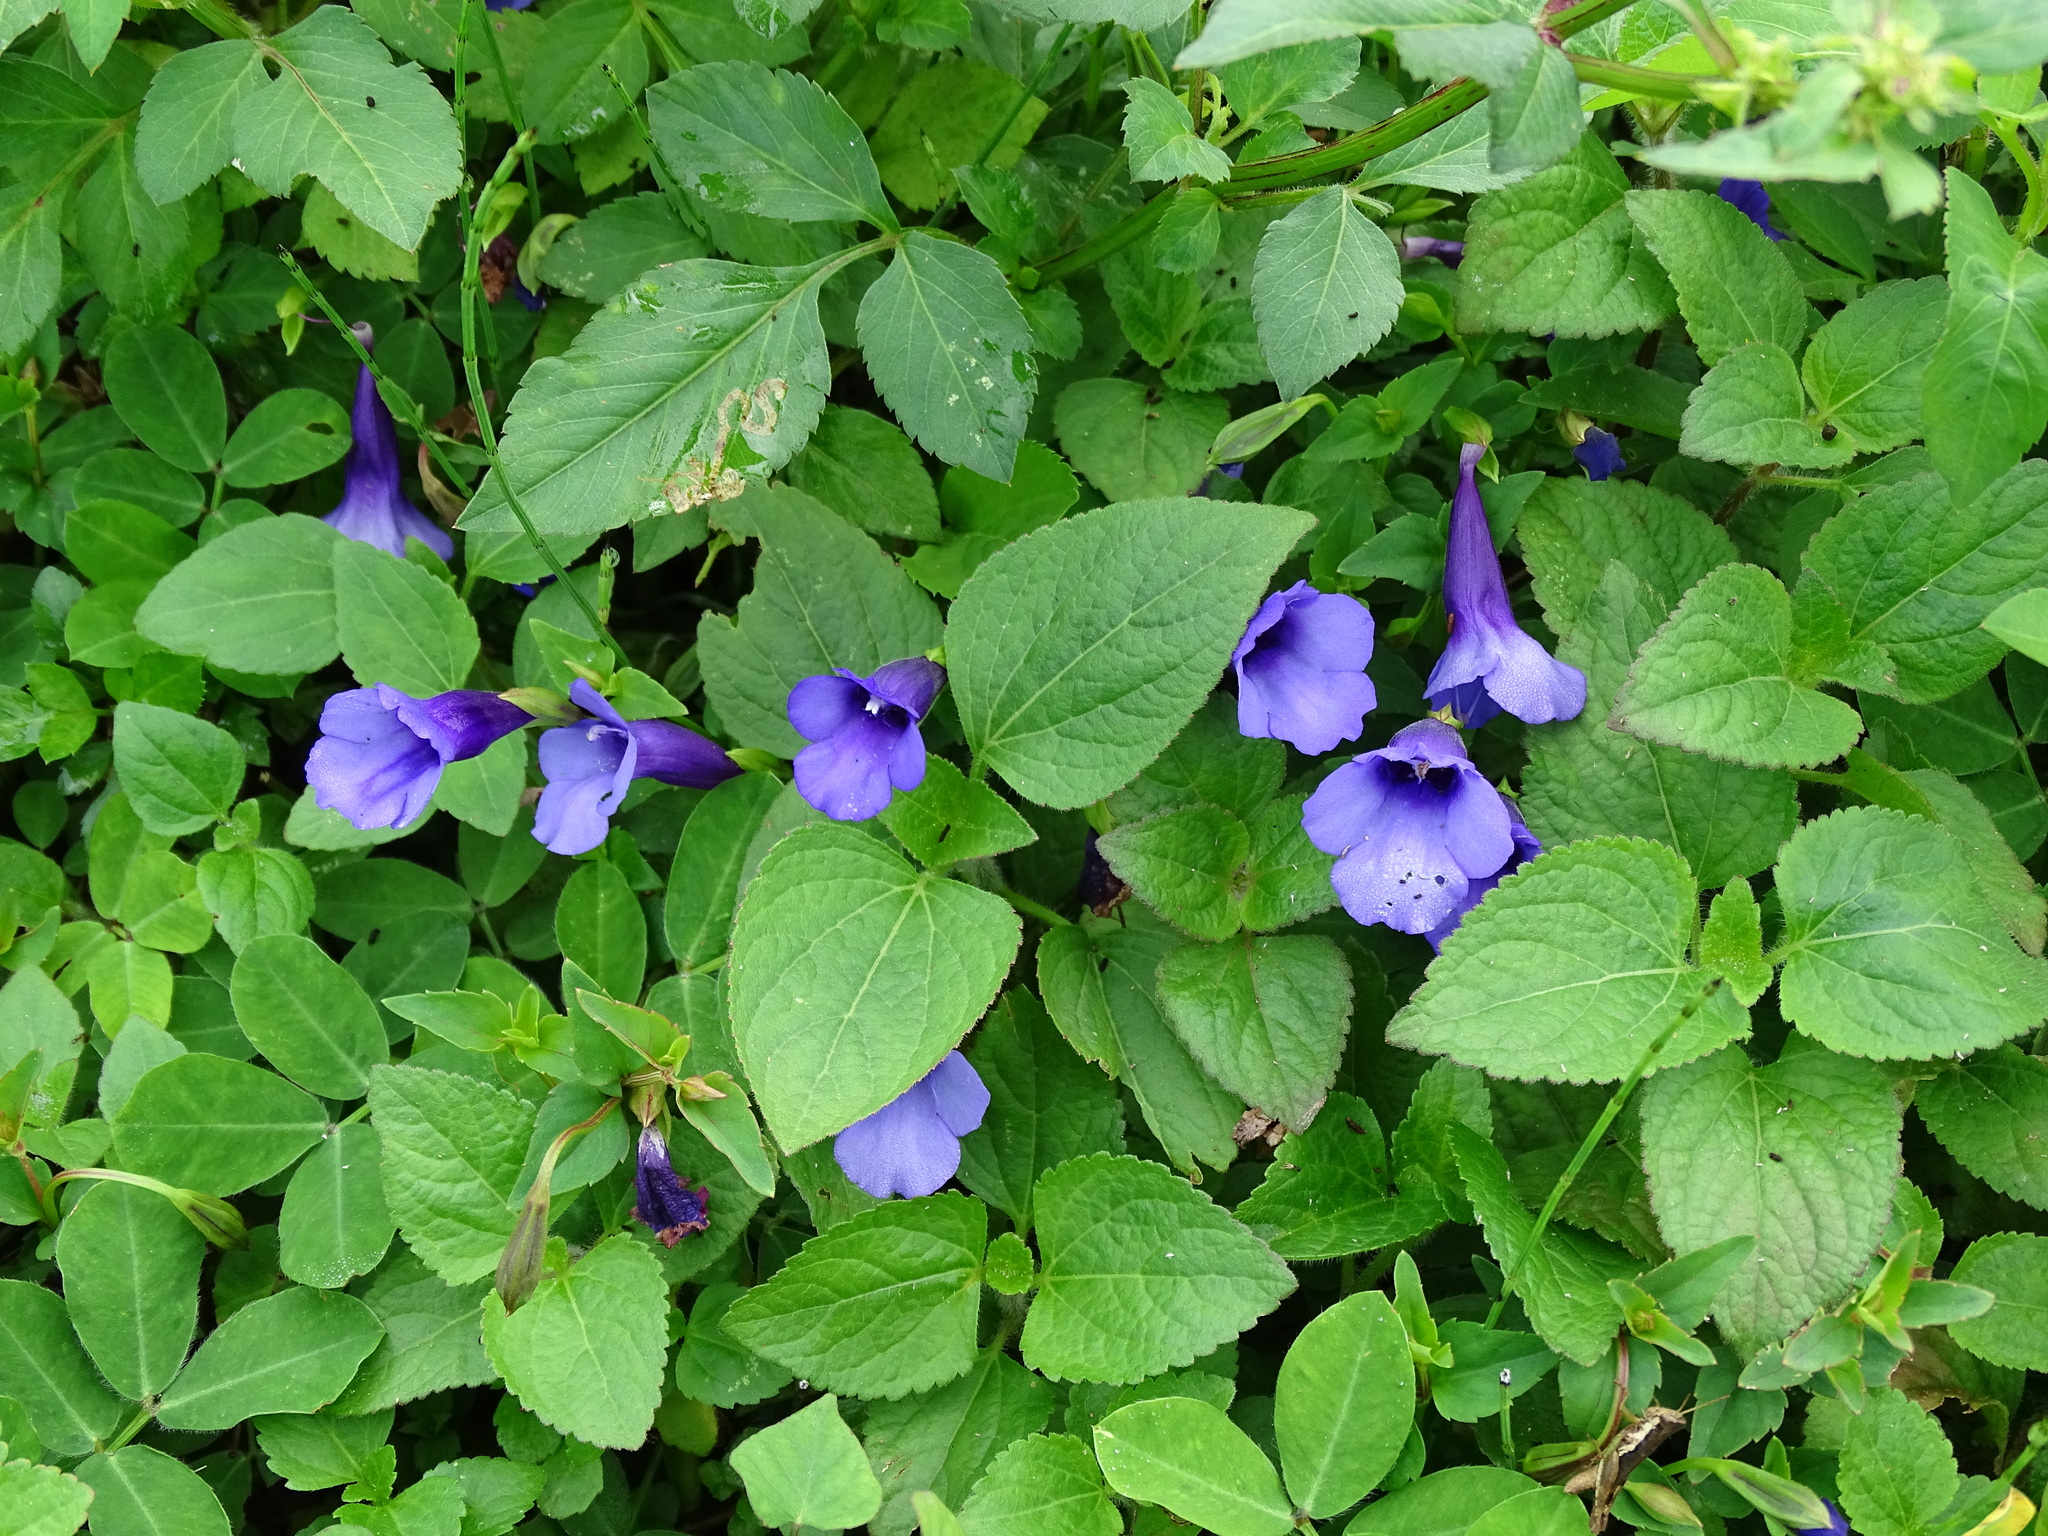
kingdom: Plantae
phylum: Tracheophyta
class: Magnoliopsida
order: Lamiales
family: Linderniaceae
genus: Torenia
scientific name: Torenia concolor
